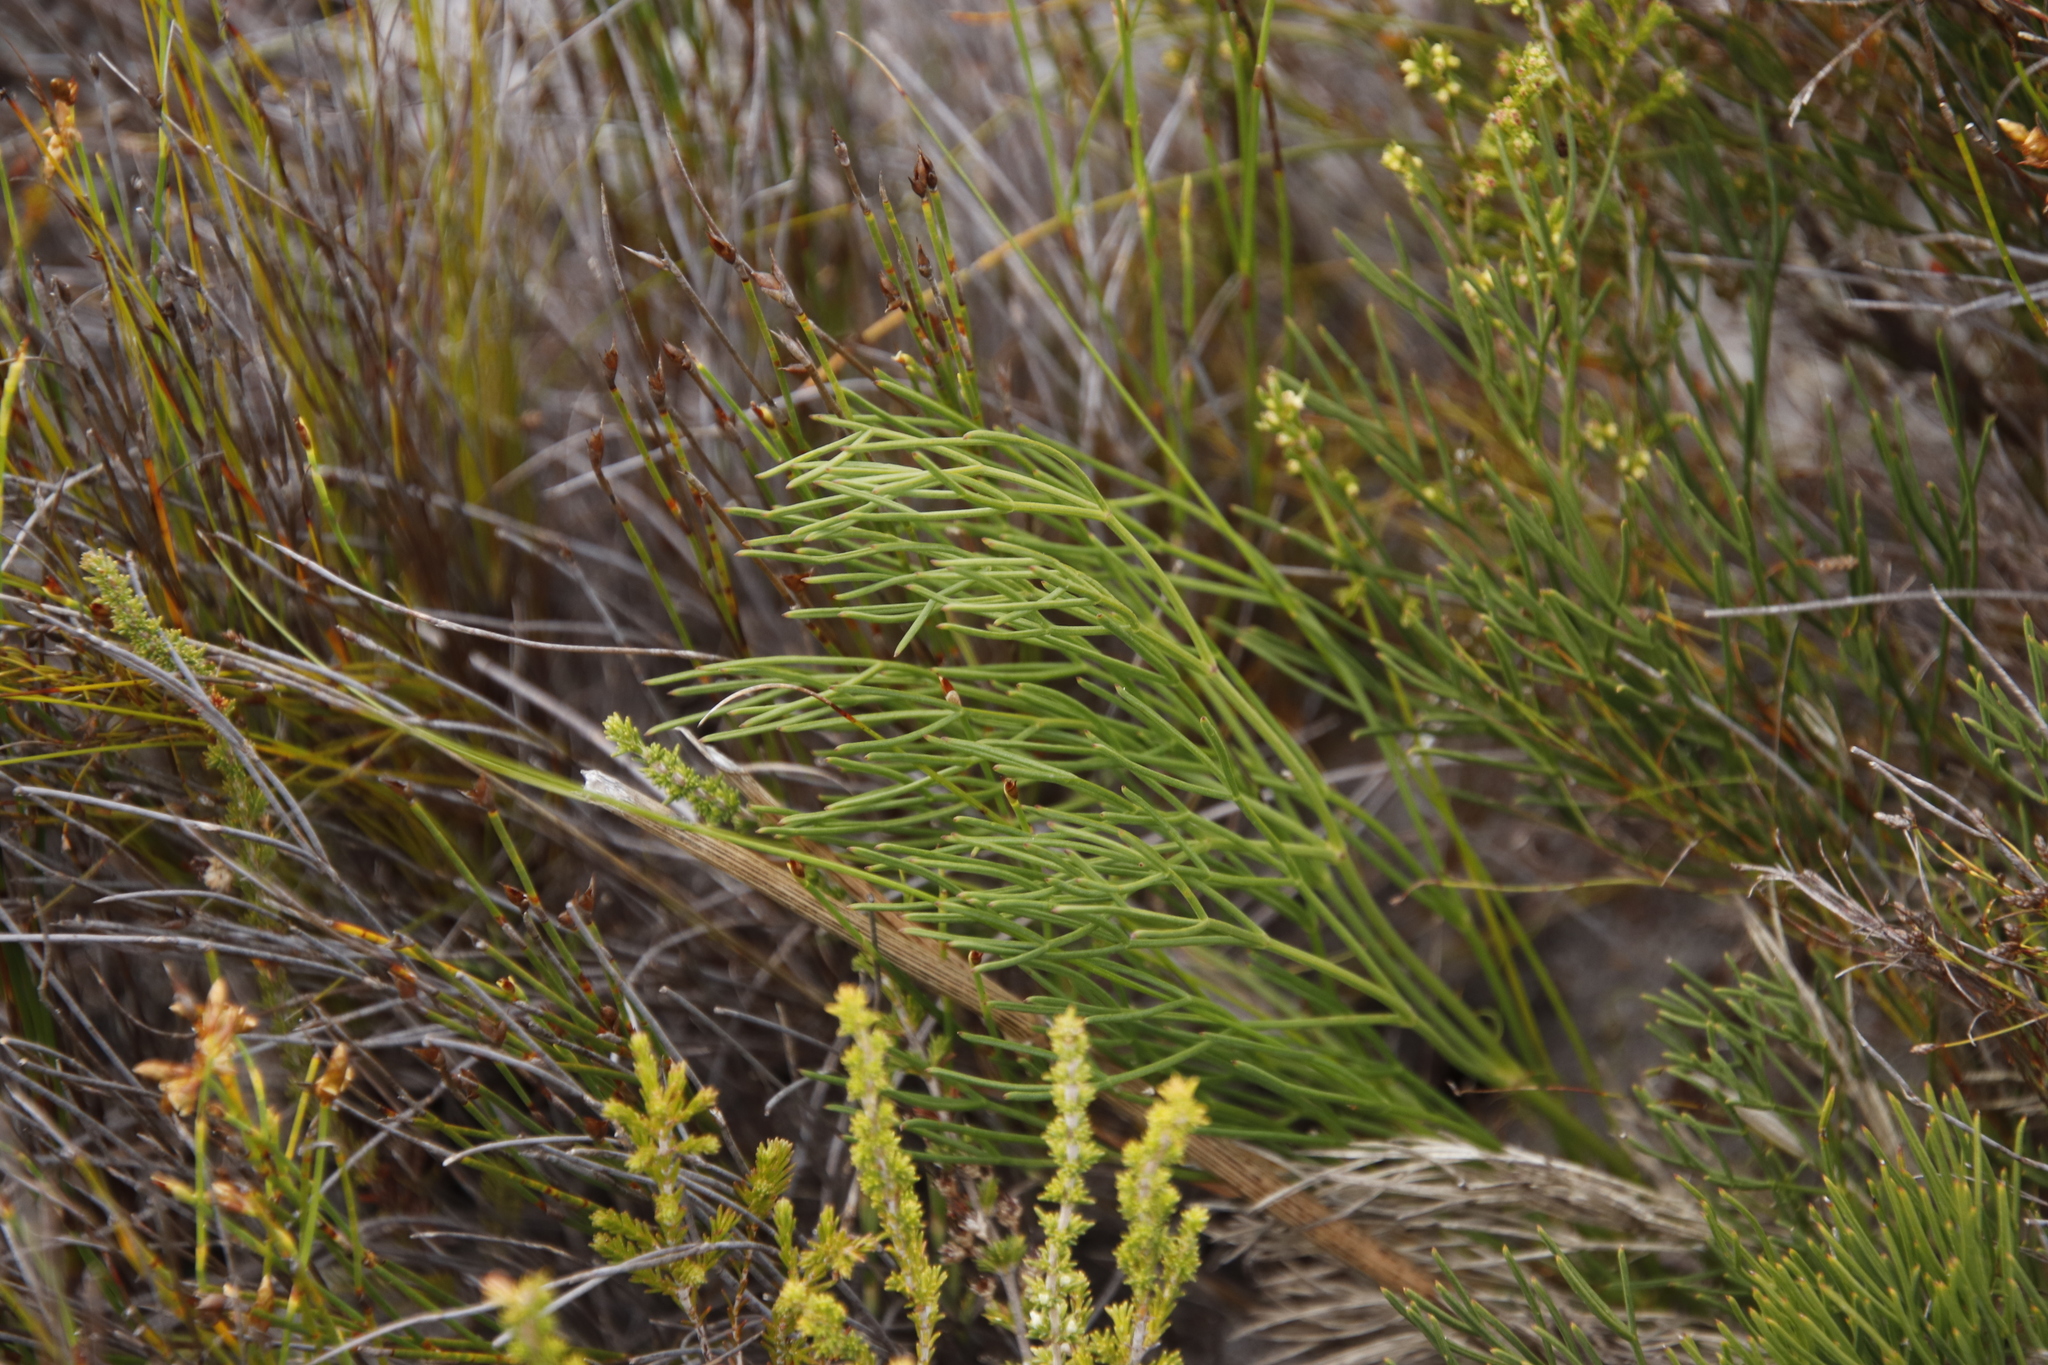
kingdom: Plantae
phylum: Tracheophyta
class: Magnoliopsida
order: Apiales
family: Apiaceae
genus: Nanobubon
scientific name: Nanobubon strictum
